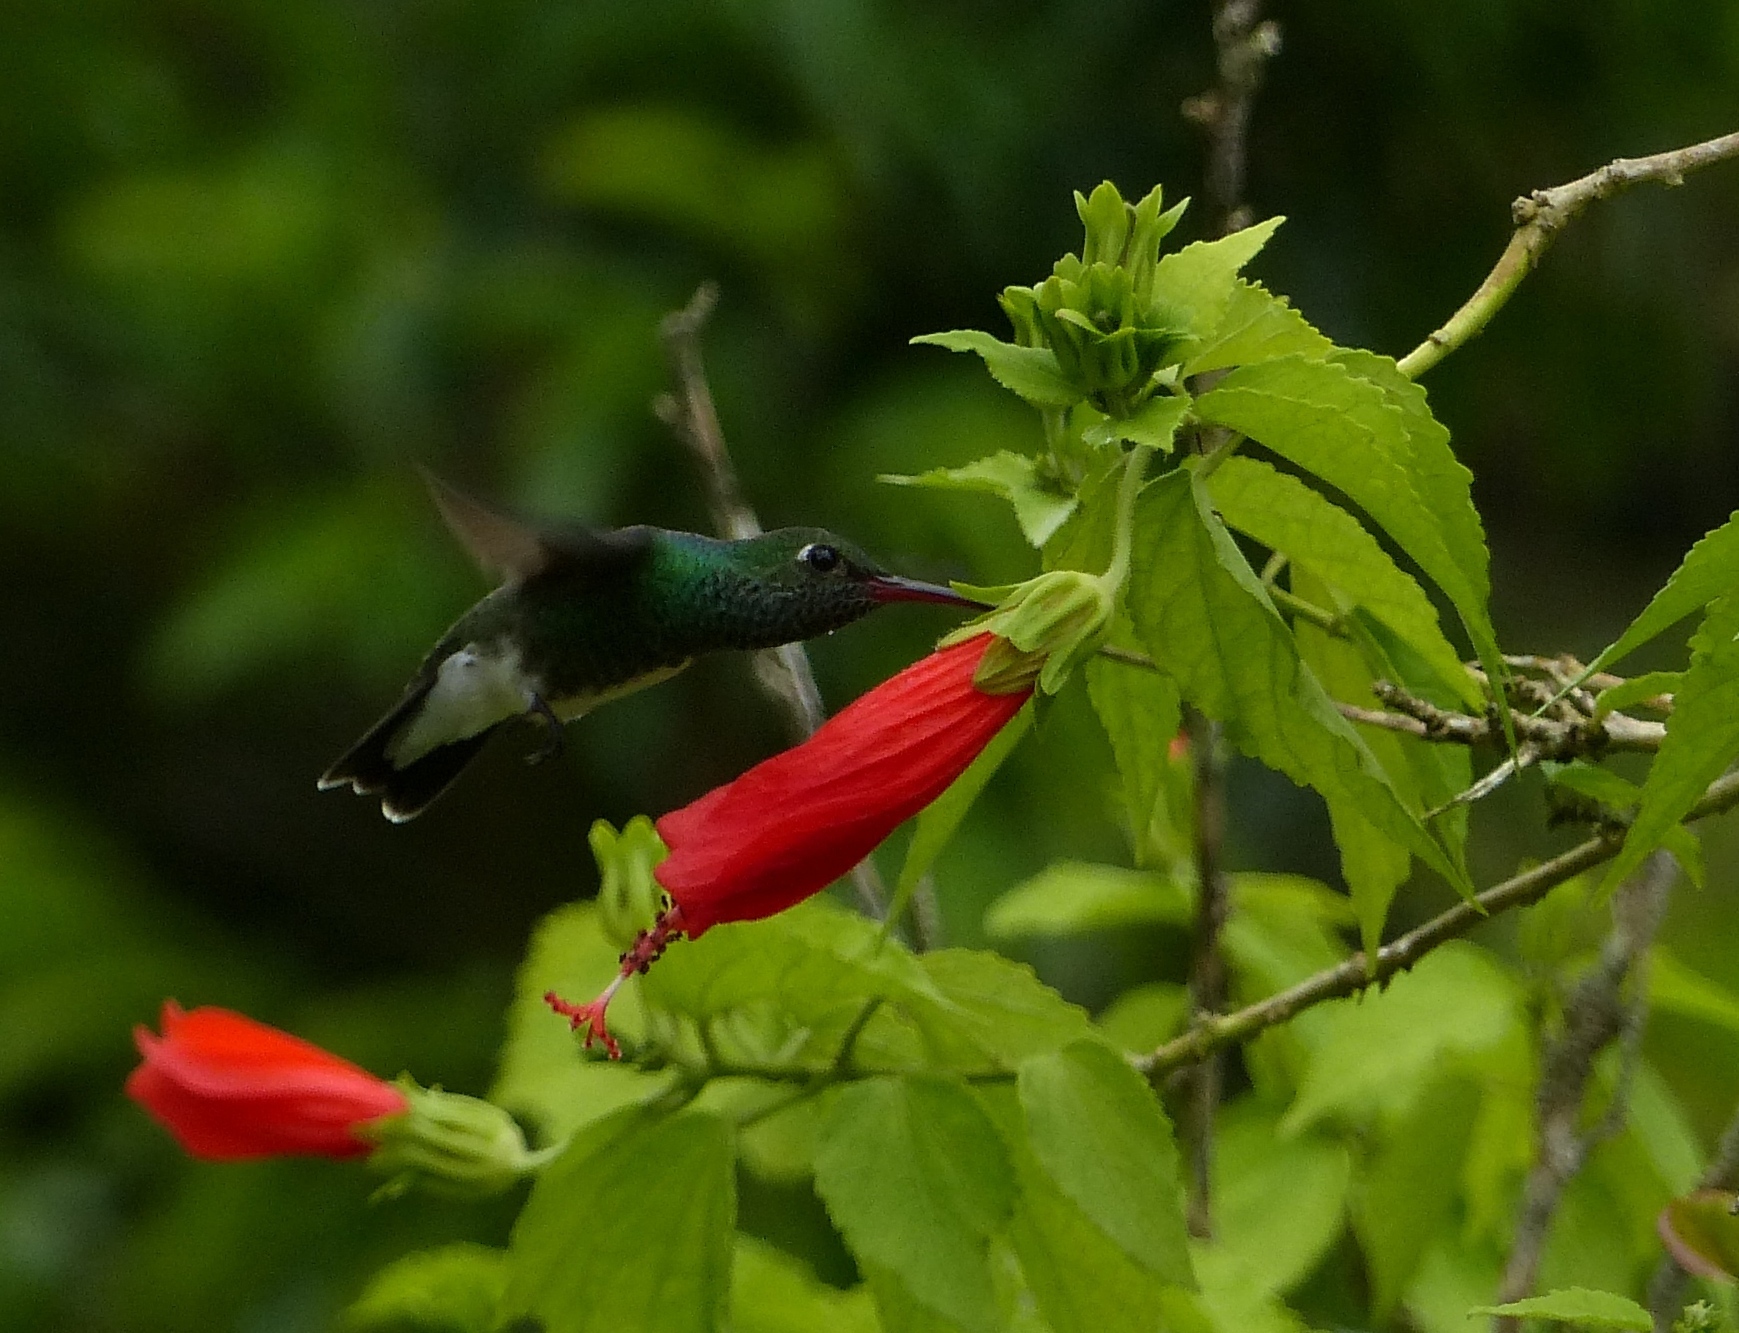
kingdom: Animalia
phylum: Chordata
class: Aves
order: Apodiformes
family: Trochilidae
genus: Chionomesa
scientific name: Chionomesa fimbriata
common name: Glittering-throated emerald
